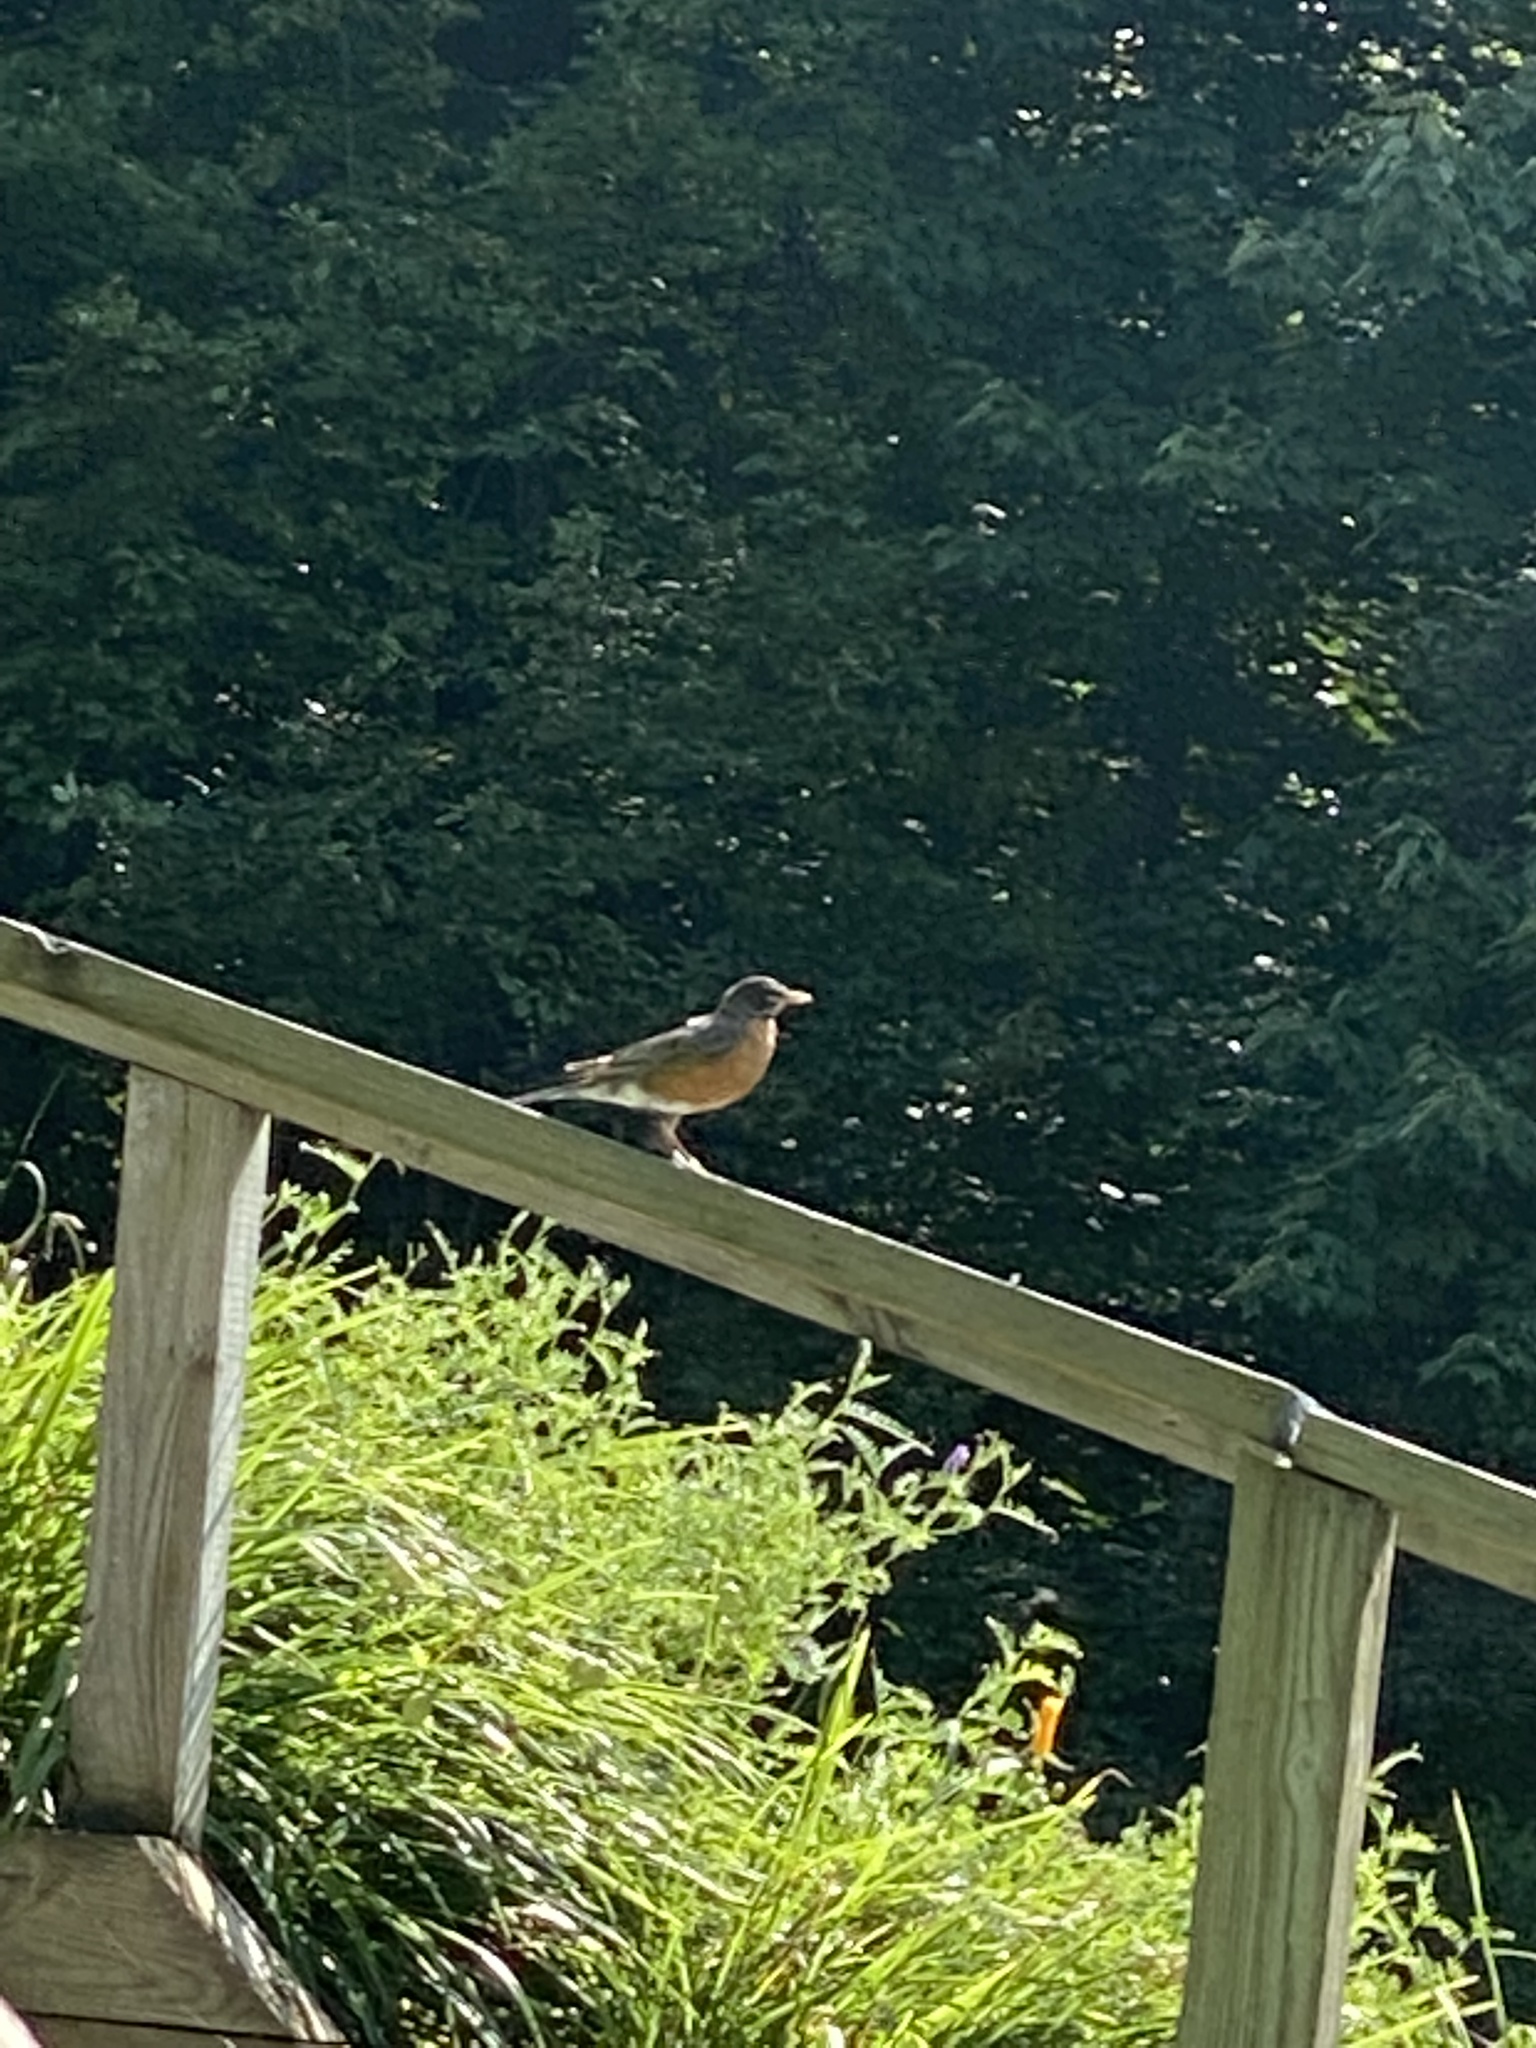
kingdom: Animalia
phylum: Chordata
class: Aves
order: Passeriformes
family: Turdidae
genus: Turdus
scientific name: Turdus migratorius
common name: American robin
